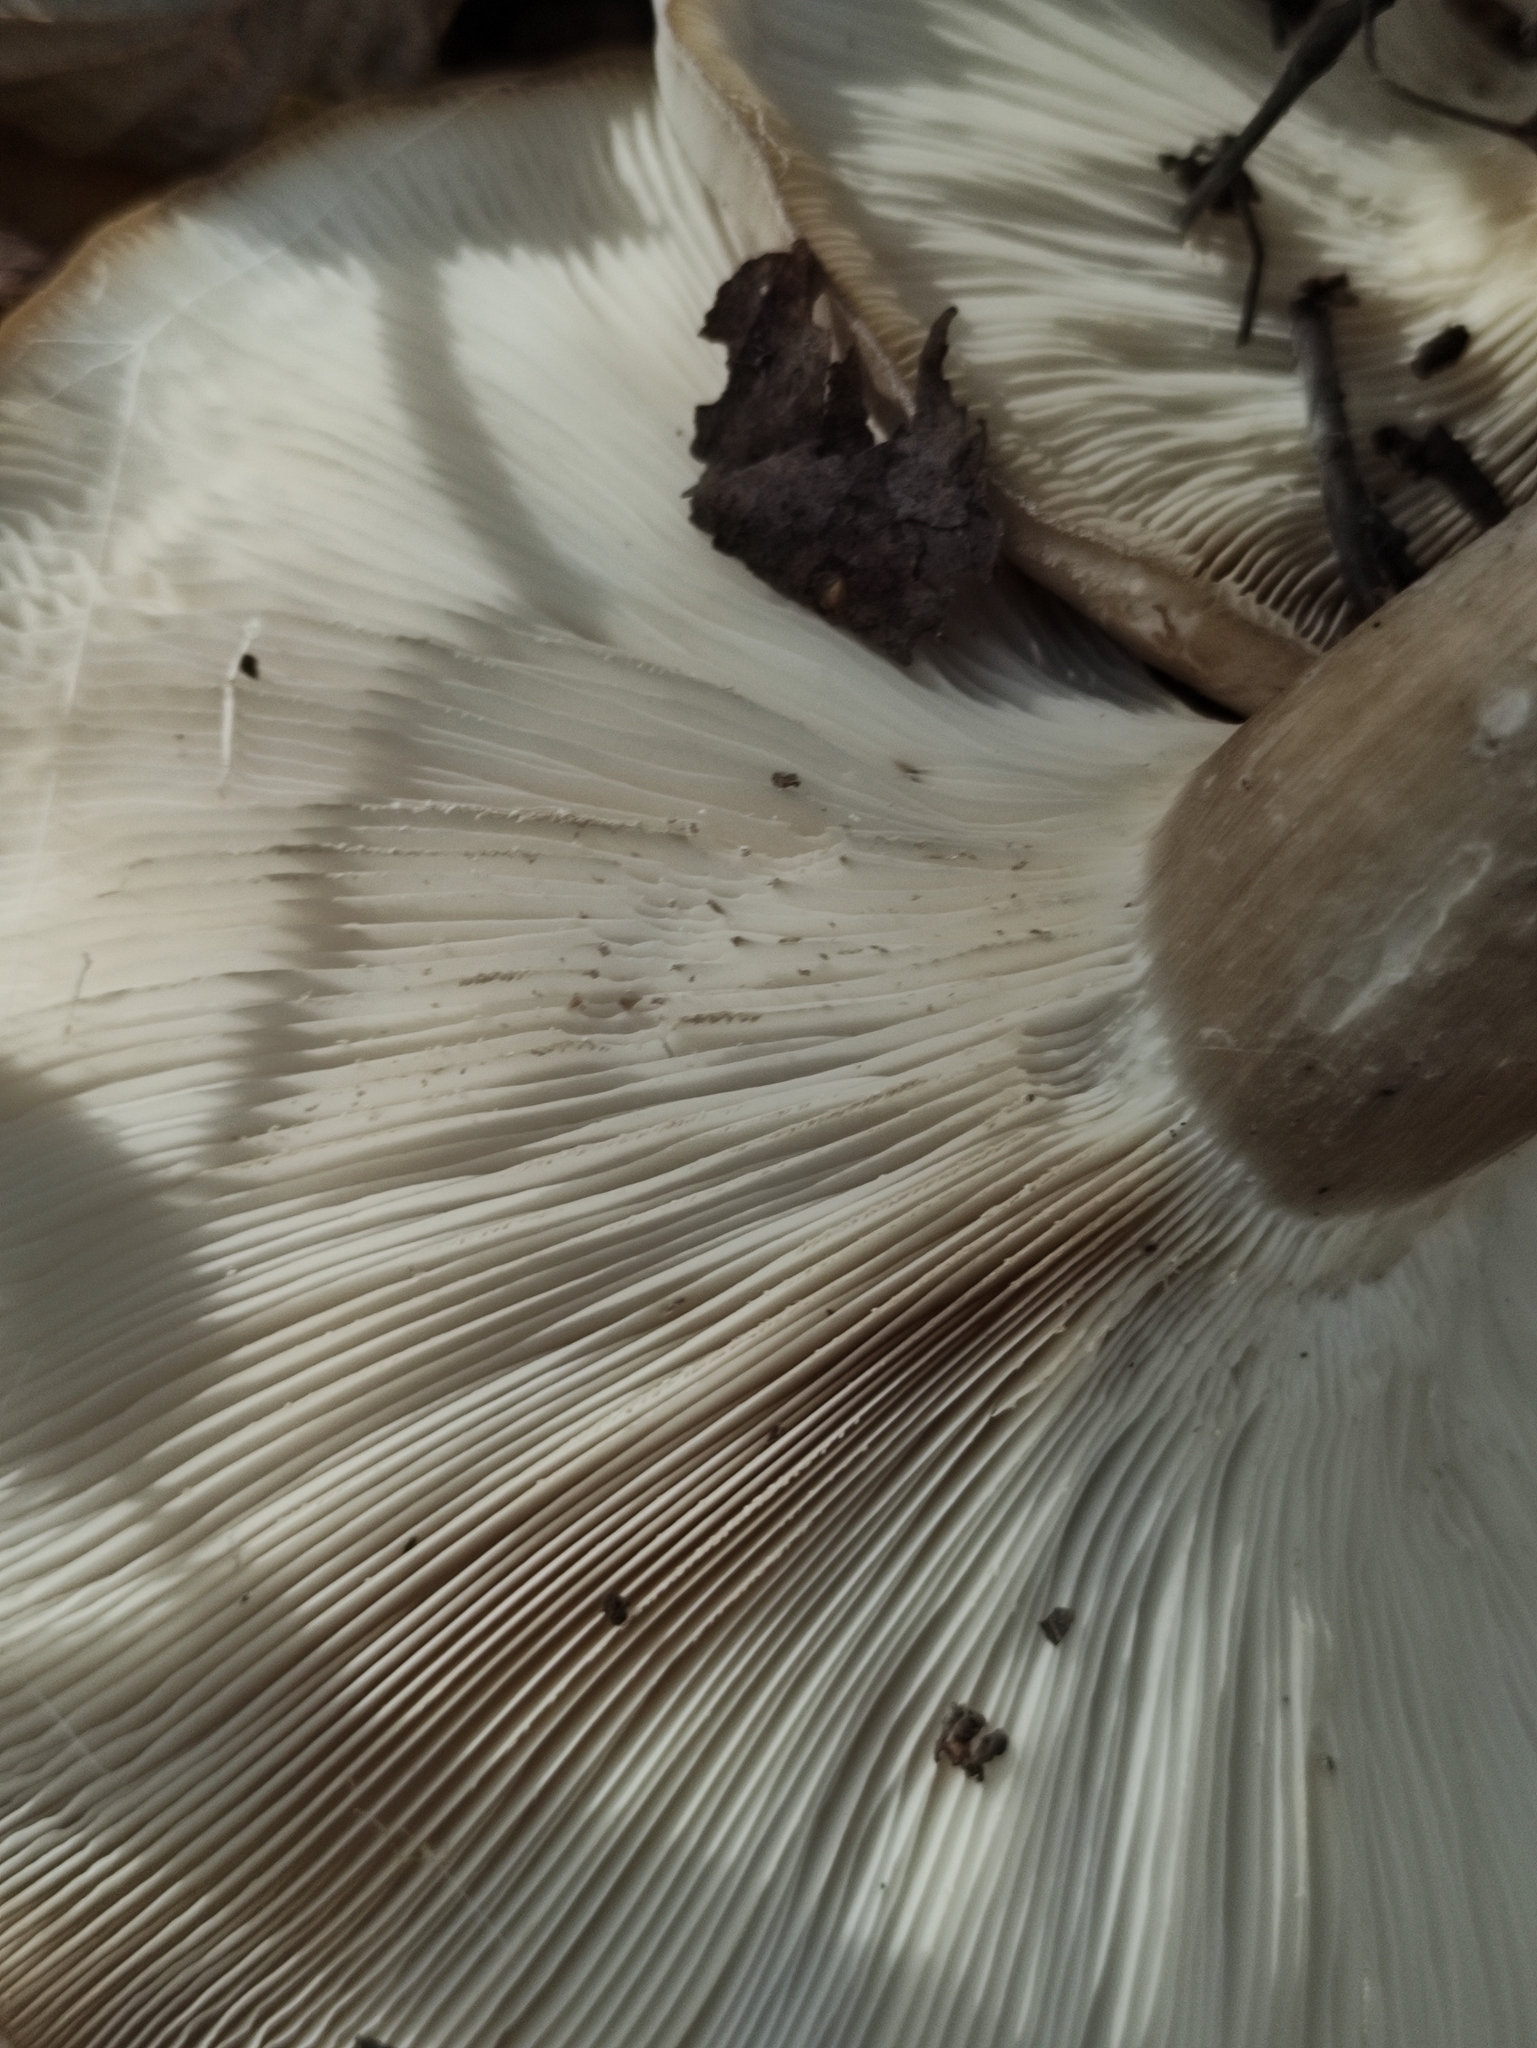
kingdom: Fungi
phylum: Basidiomycota
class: Agaricomycetes
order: Agaricales
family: Tricholomataceae
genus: Clitocybe
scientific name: Clitocybe nebularis
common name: Clouded agaric
